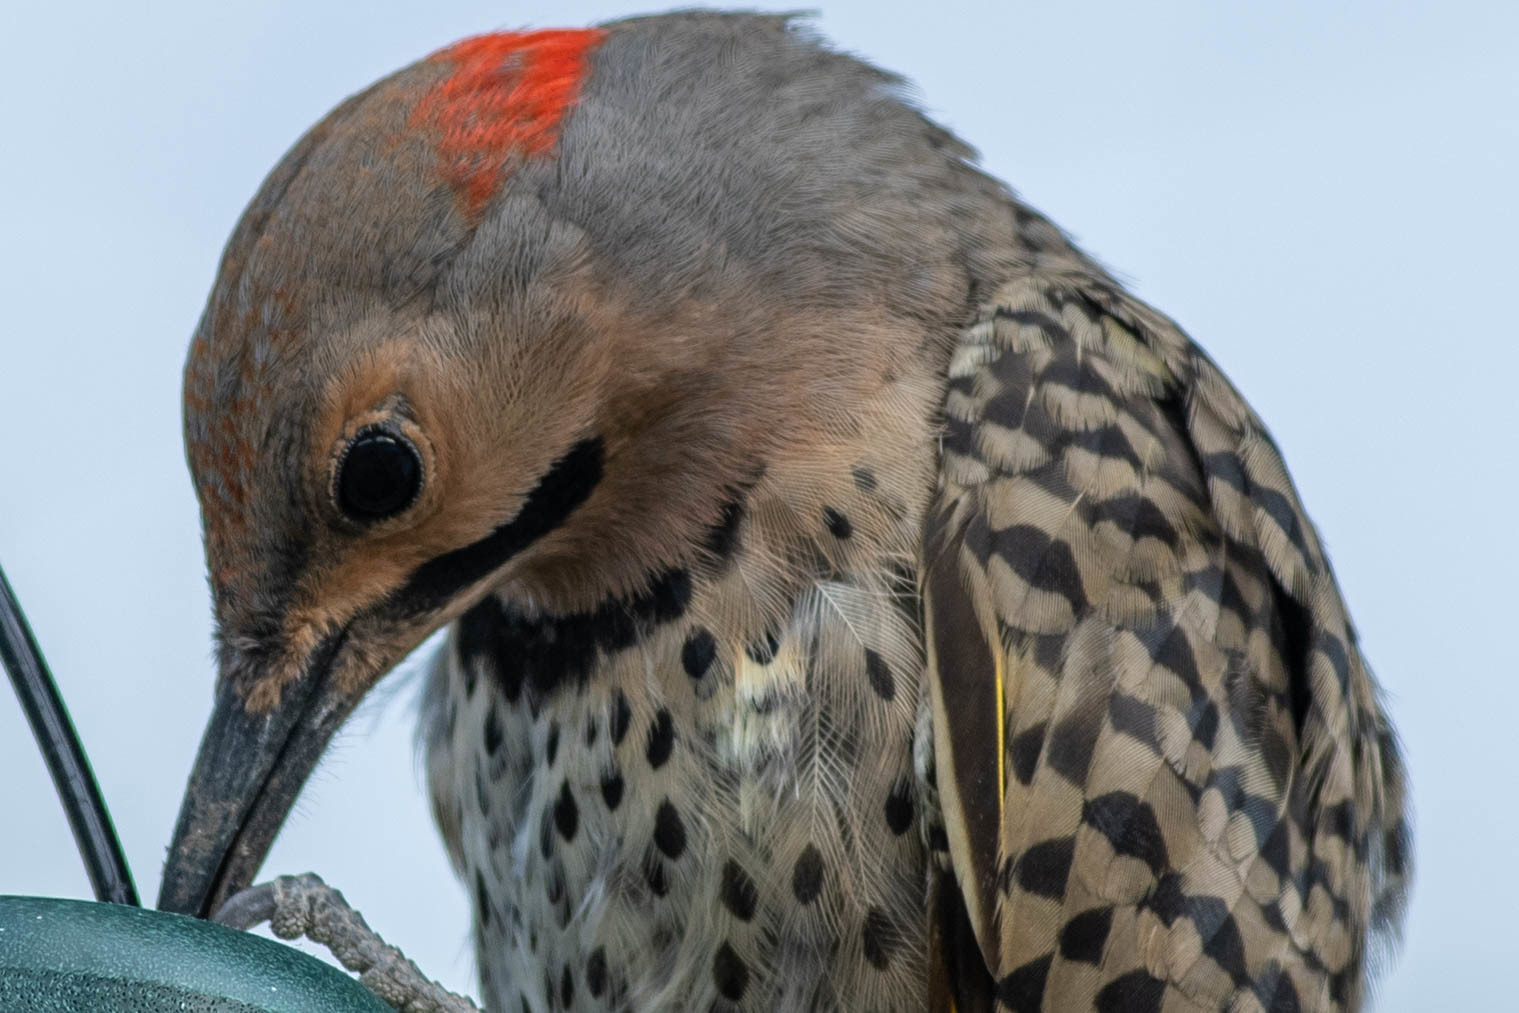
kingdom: Animalia
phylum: Chordata
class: Aves
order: Piciformes
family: Picidae
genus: Colaptes
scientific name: Colaptes auratus
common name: Northern flicker
